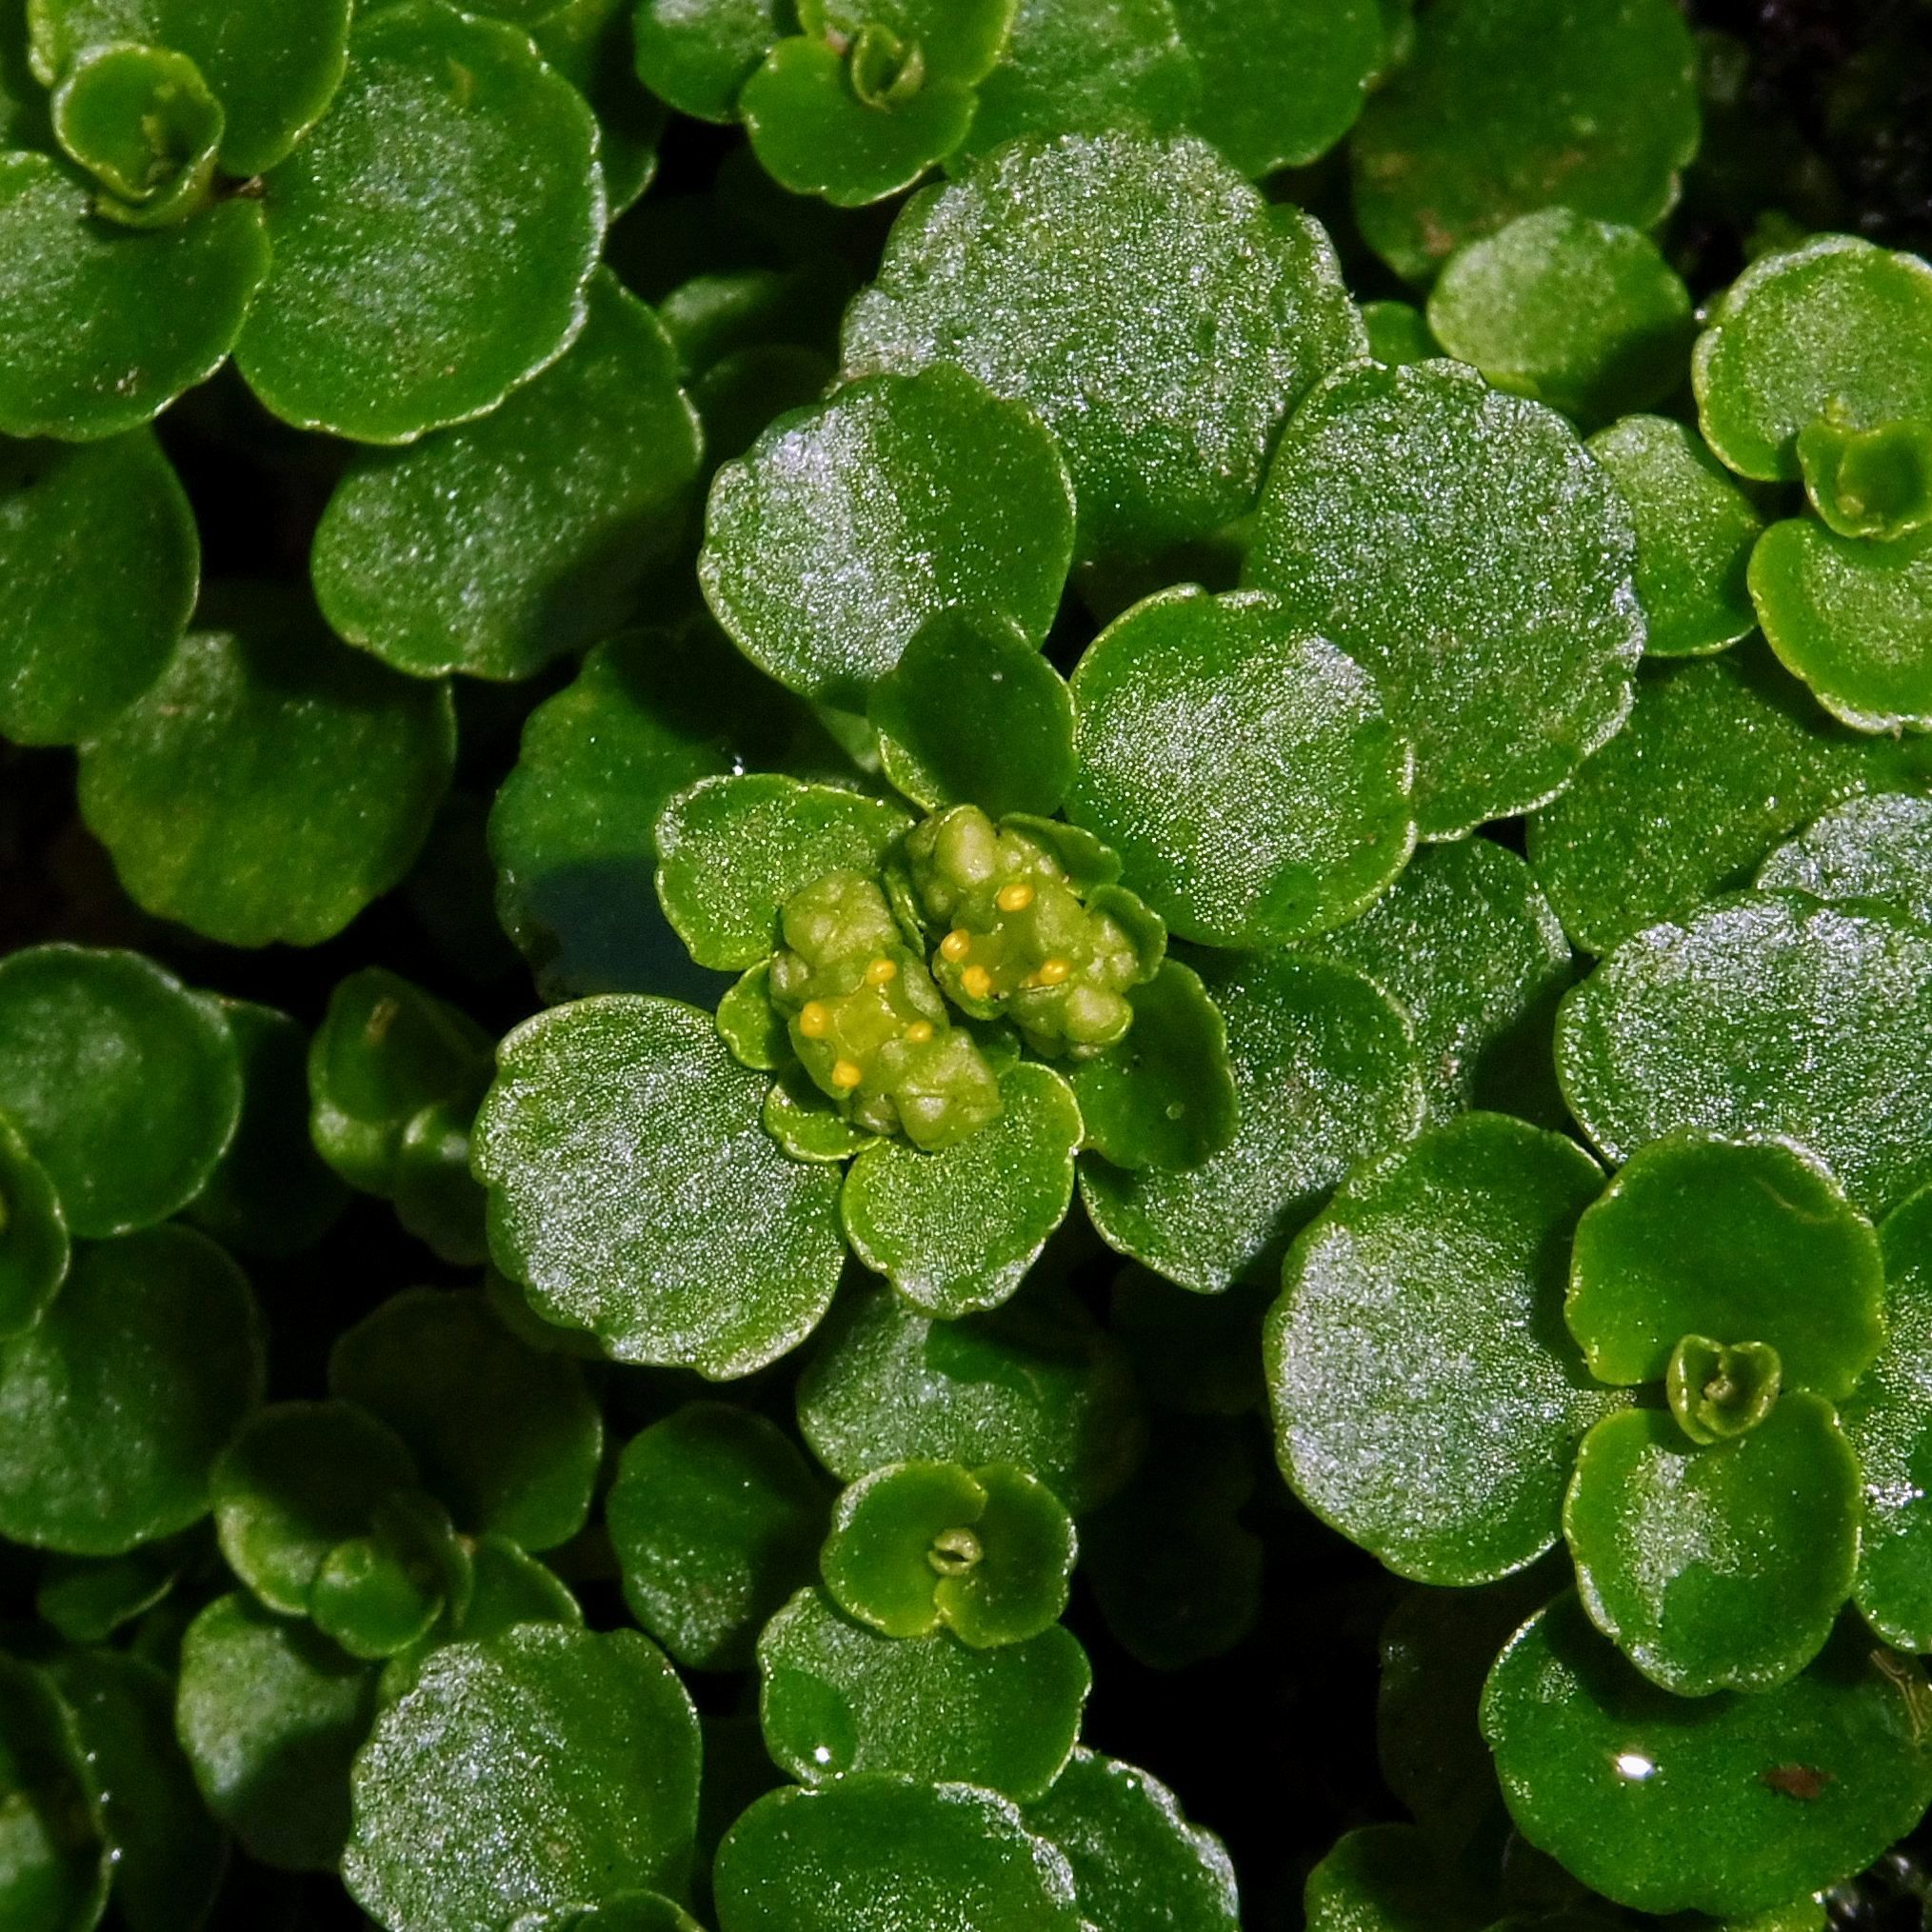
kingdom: Plantae
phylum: Tracheophyta
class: Magnoliopsida
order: Saxifragales
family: Saxifragaceae
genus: Chrysosplenium
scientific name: Chrysosplenium oppositifolium
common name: Opposite-leaved golden-saxifrage
